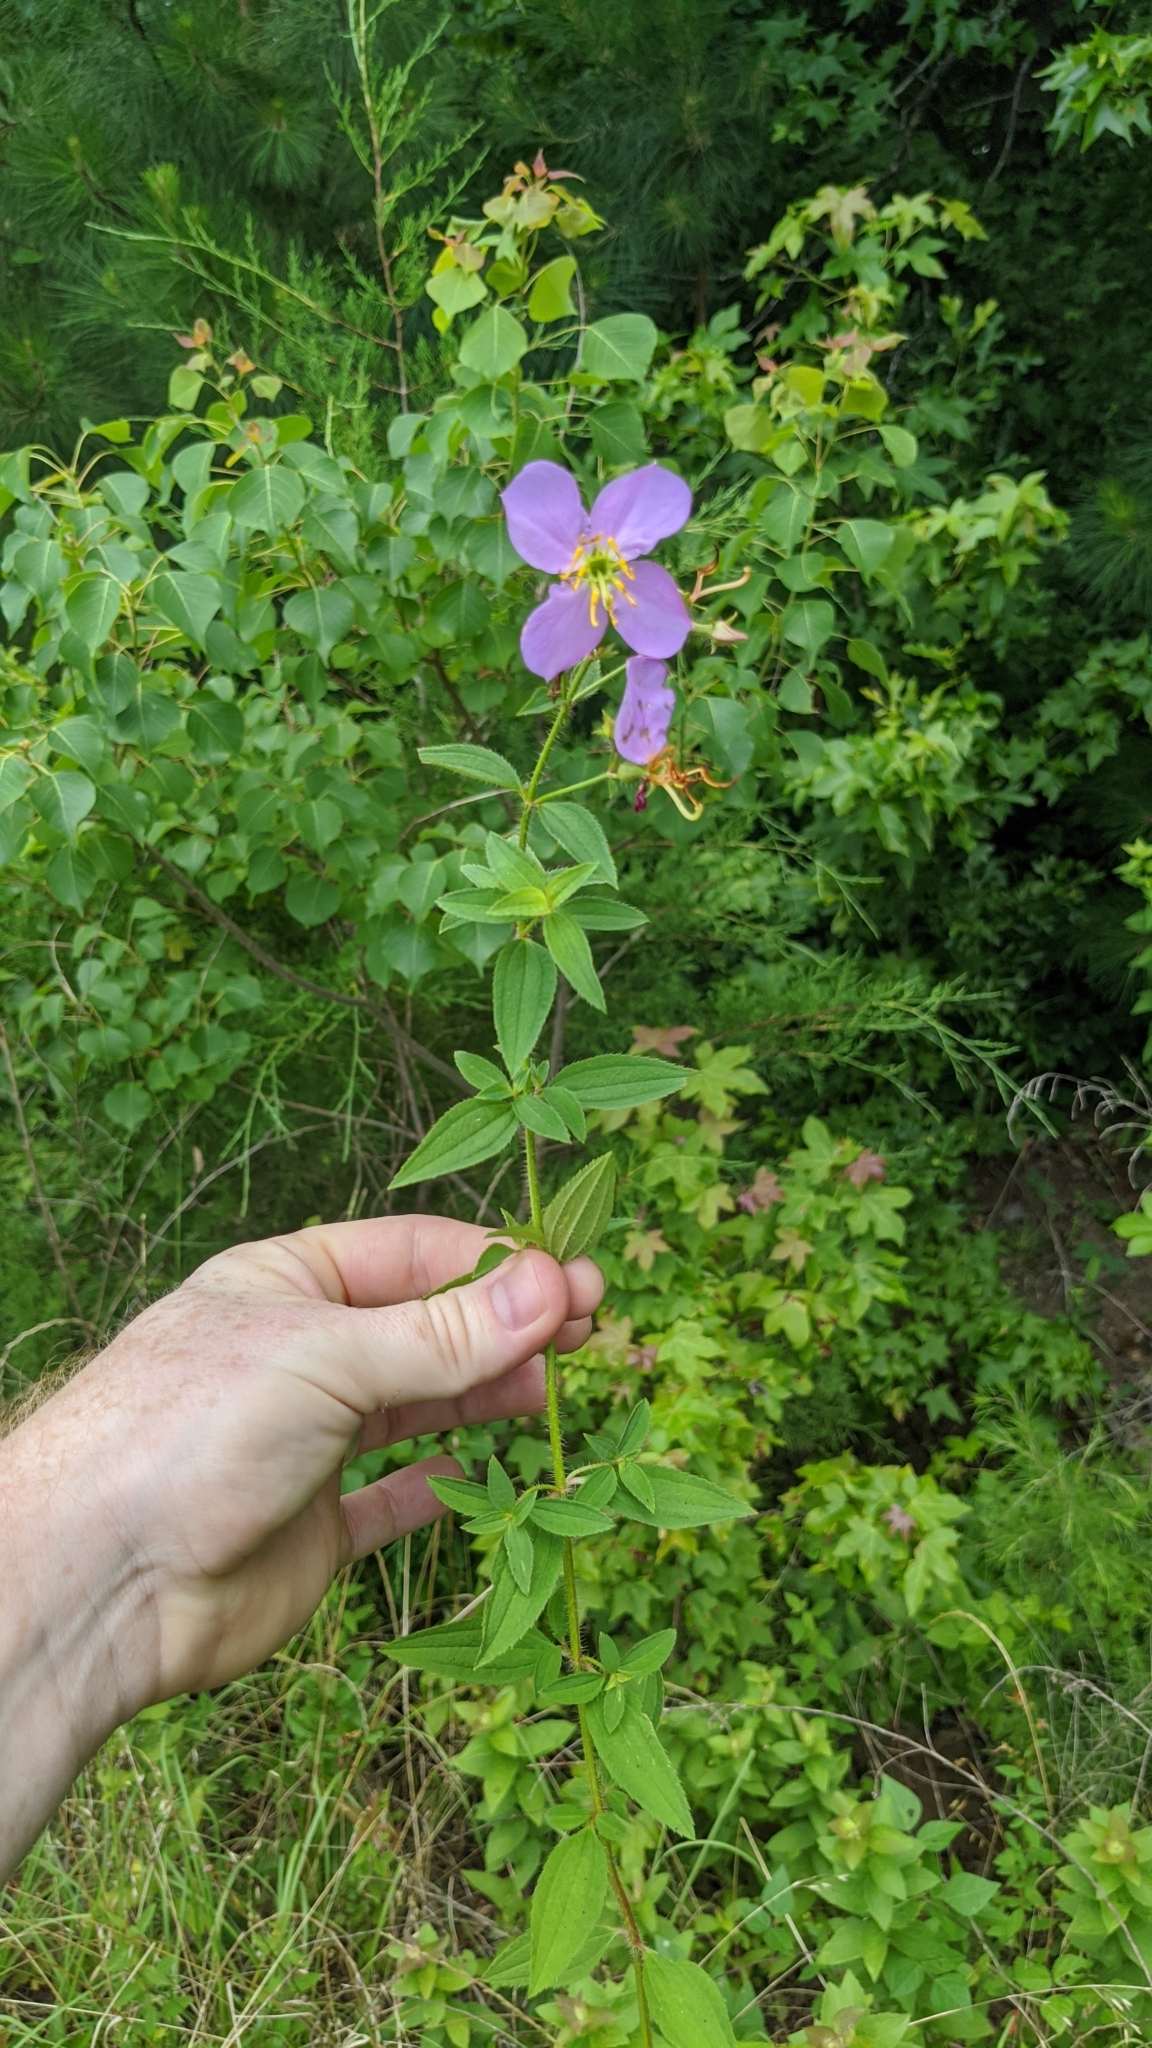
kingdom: Plantae
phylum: Tracheophyta
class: Magnoliopsida
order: Myrtales
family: Melastomataceae
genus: Rhexia
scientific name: Rhexia mariana
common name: Dull meadow-pitcher
